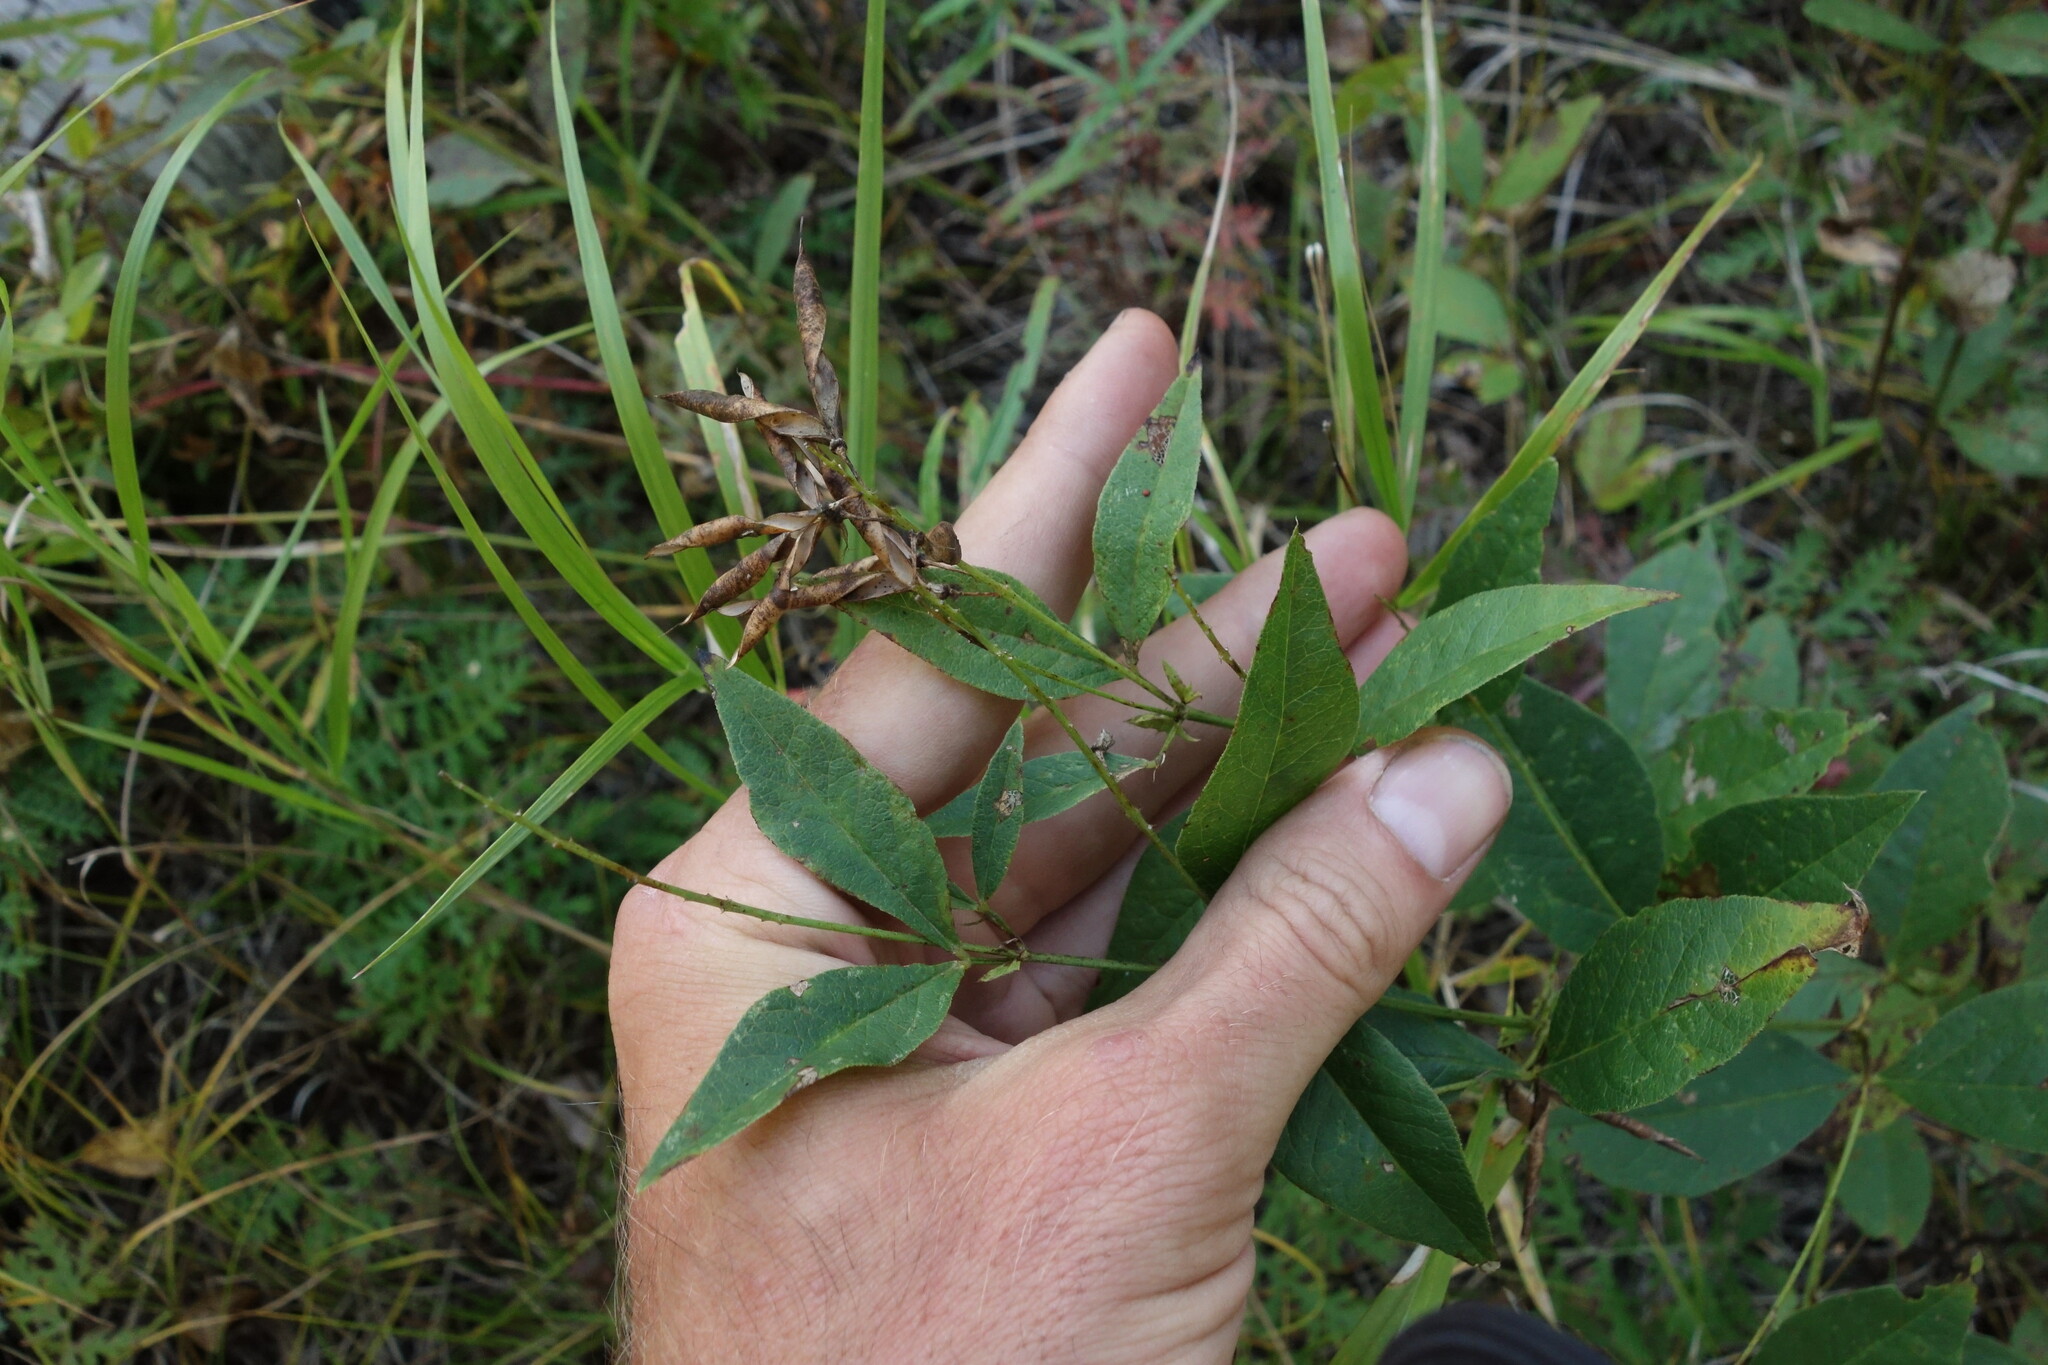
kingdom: Plantae
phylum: Tracheophyta
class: Magnoliopsida
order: Fabales
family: Fabaceae
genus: Vicia
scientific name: Vicia unijuga
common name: Two-leaf vetch
